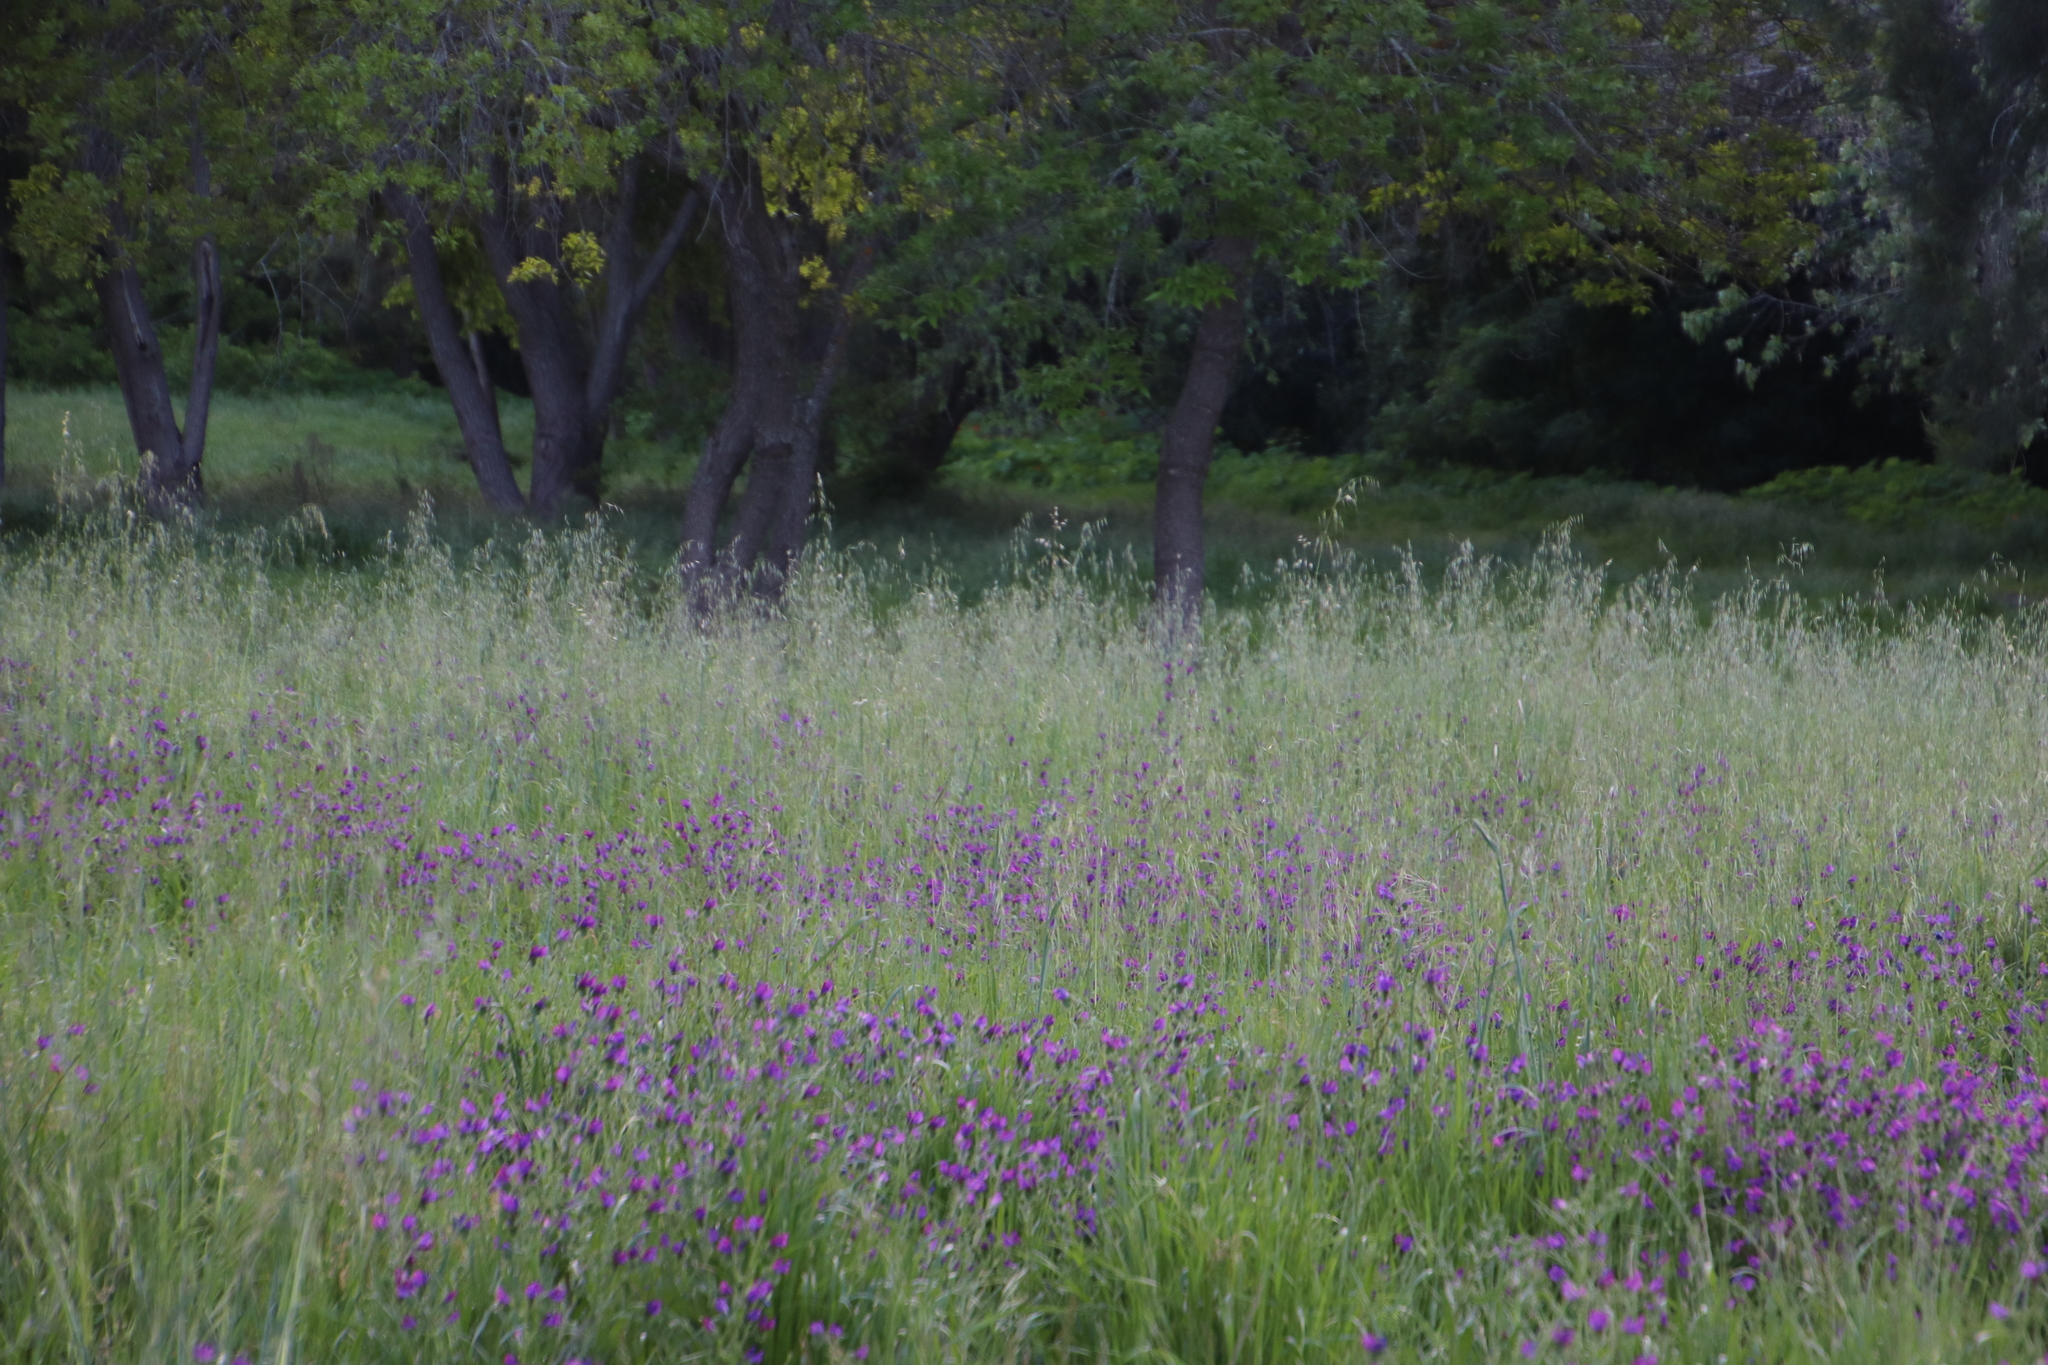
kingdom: Plantae
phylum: Tracheophyta
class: Magnoliopsida
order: Boraginales
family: Boraginaceae
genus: Echium
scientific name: Echium plantagineum
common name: Purple viper's-bugloss
